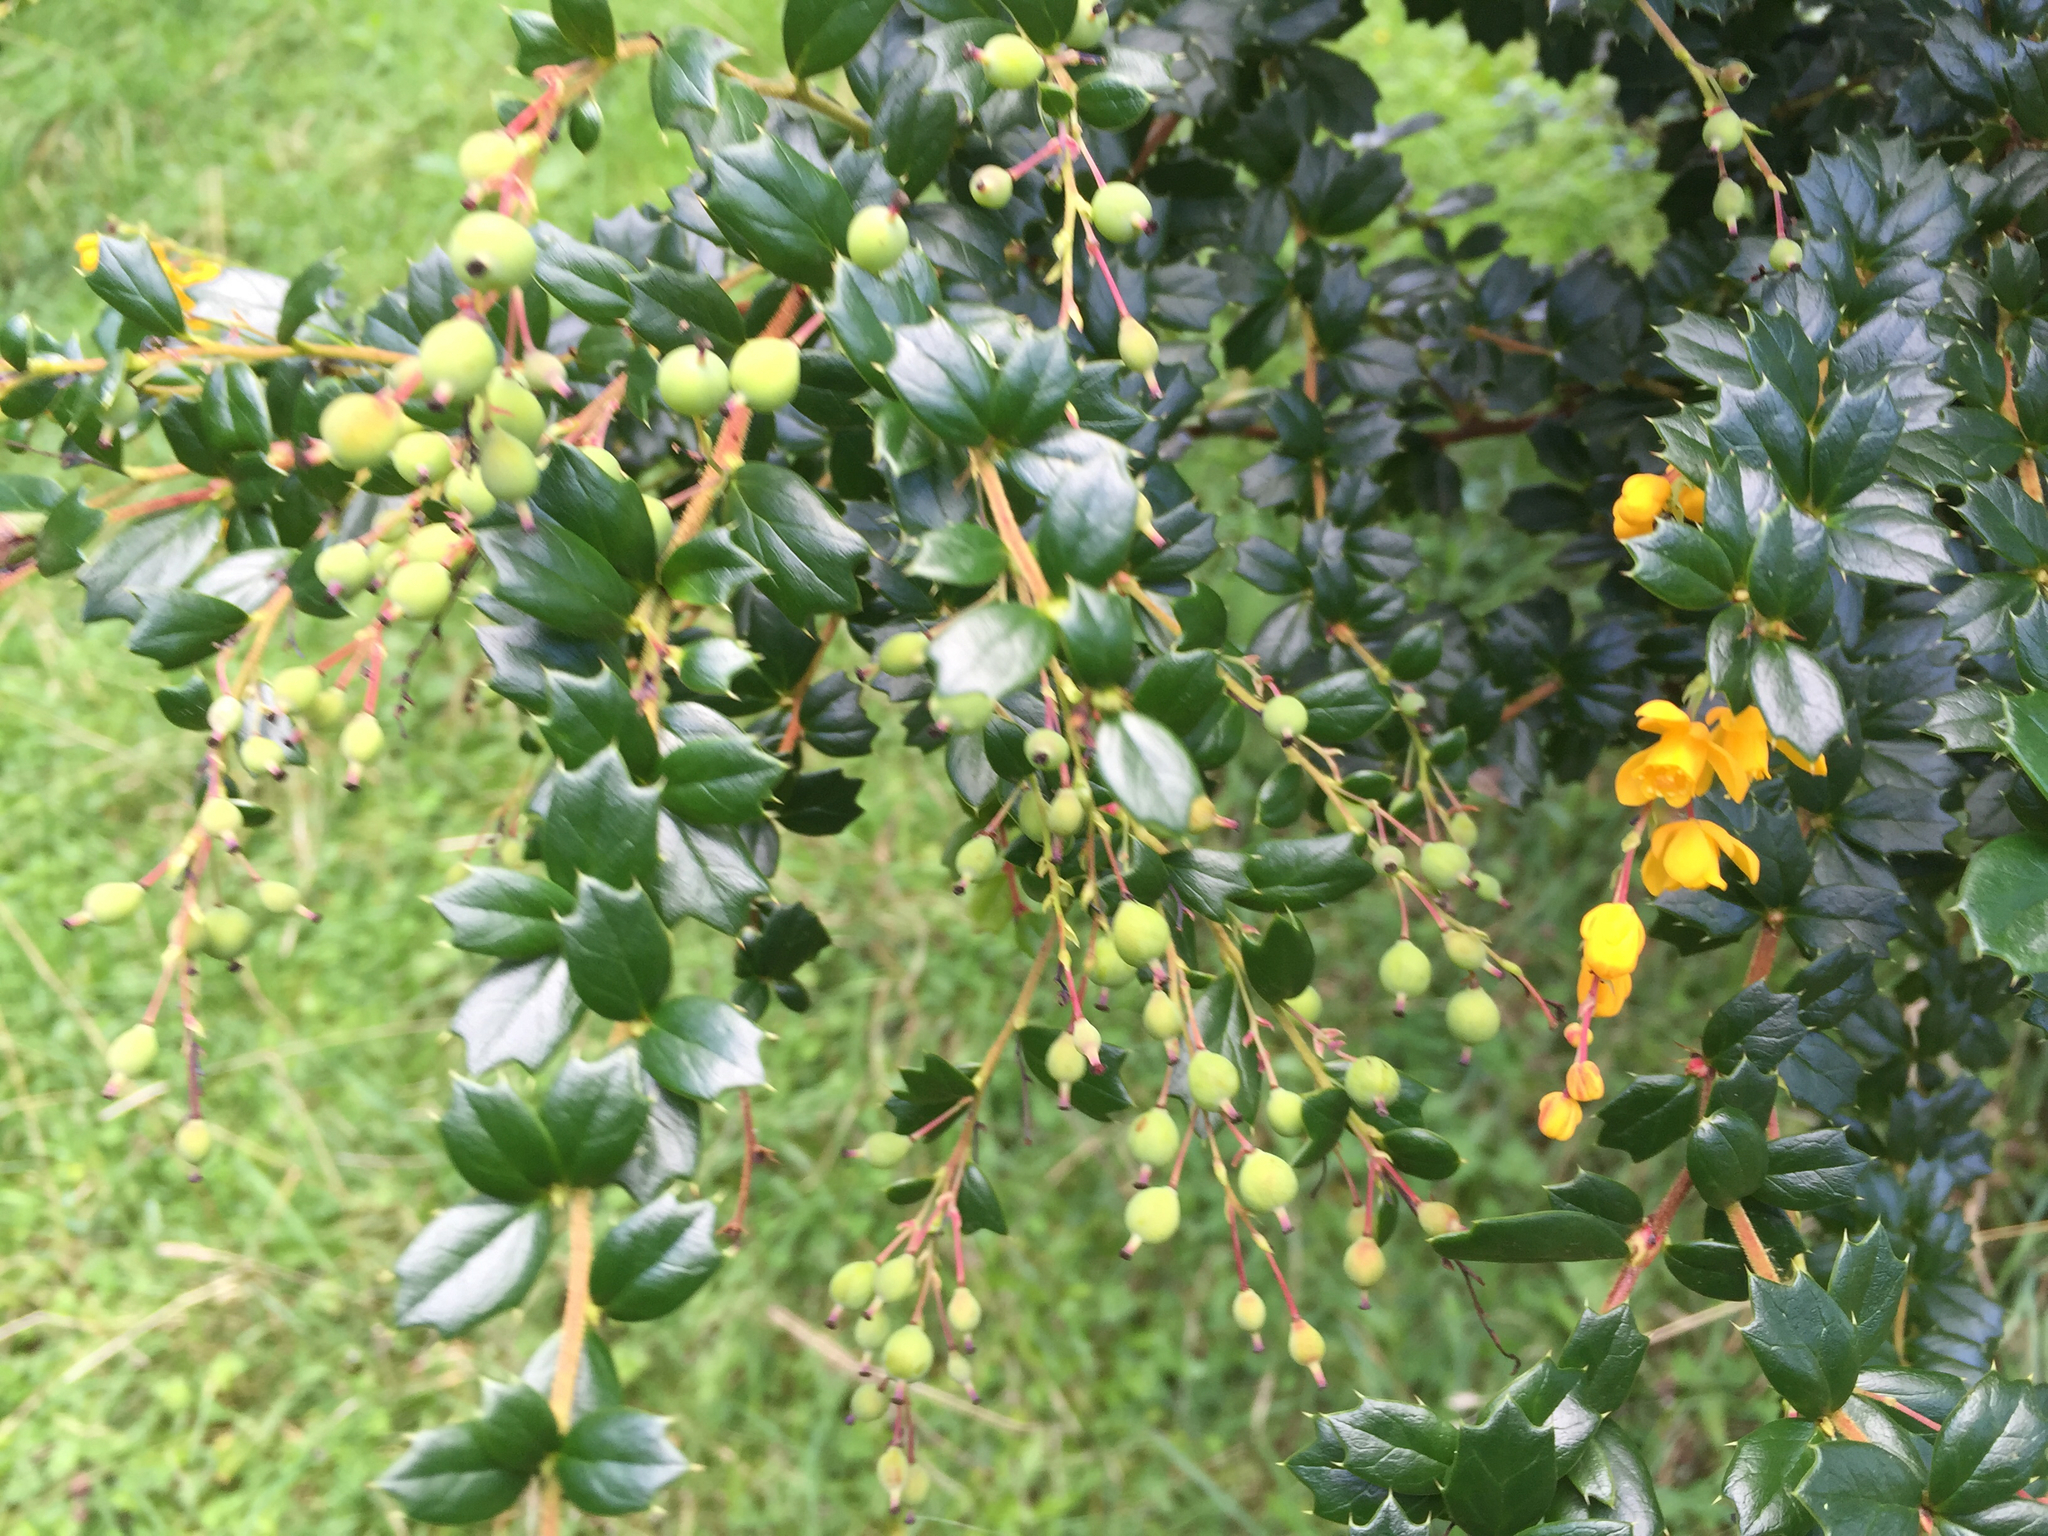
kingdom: Plantae
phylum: Tracheophyta
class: Magnoliopsida
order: Ranunculales
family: Berberidaceae
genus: Berberis
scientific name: Berberis darwinii
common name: Darwin's barberry
